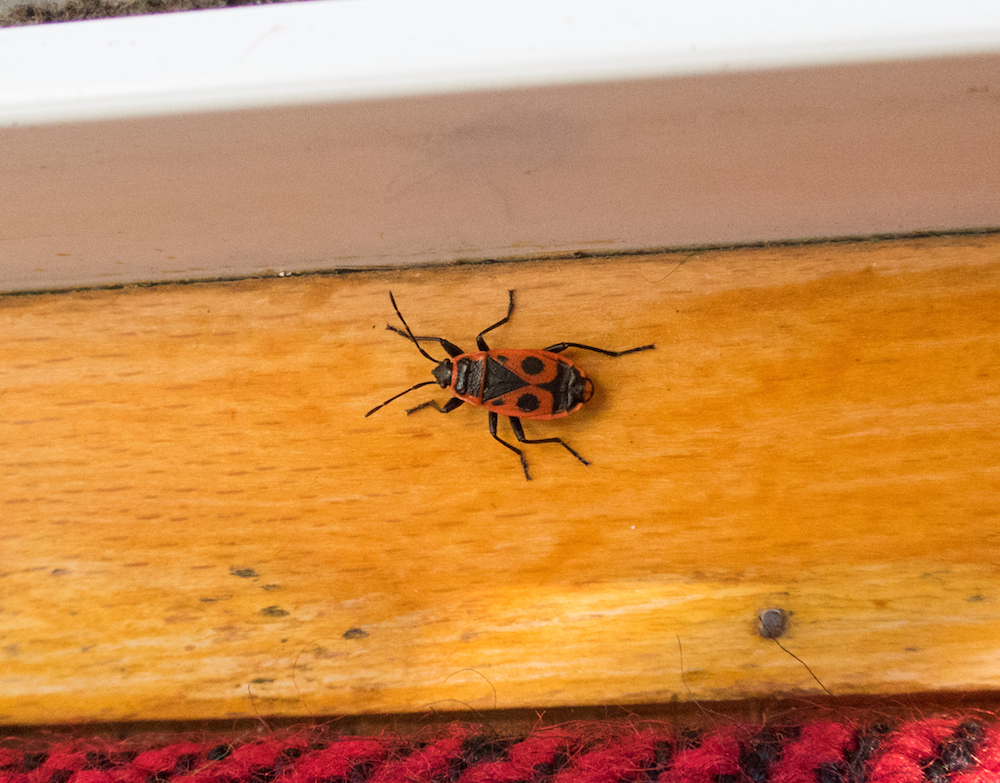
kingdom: Animalia
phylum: Arthropoda
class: Insecta
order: Hemiptera
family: Pyrrhocoridae
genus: Pyrrhocoris
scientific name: Pyrrhocoris apterus
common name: Firebug
